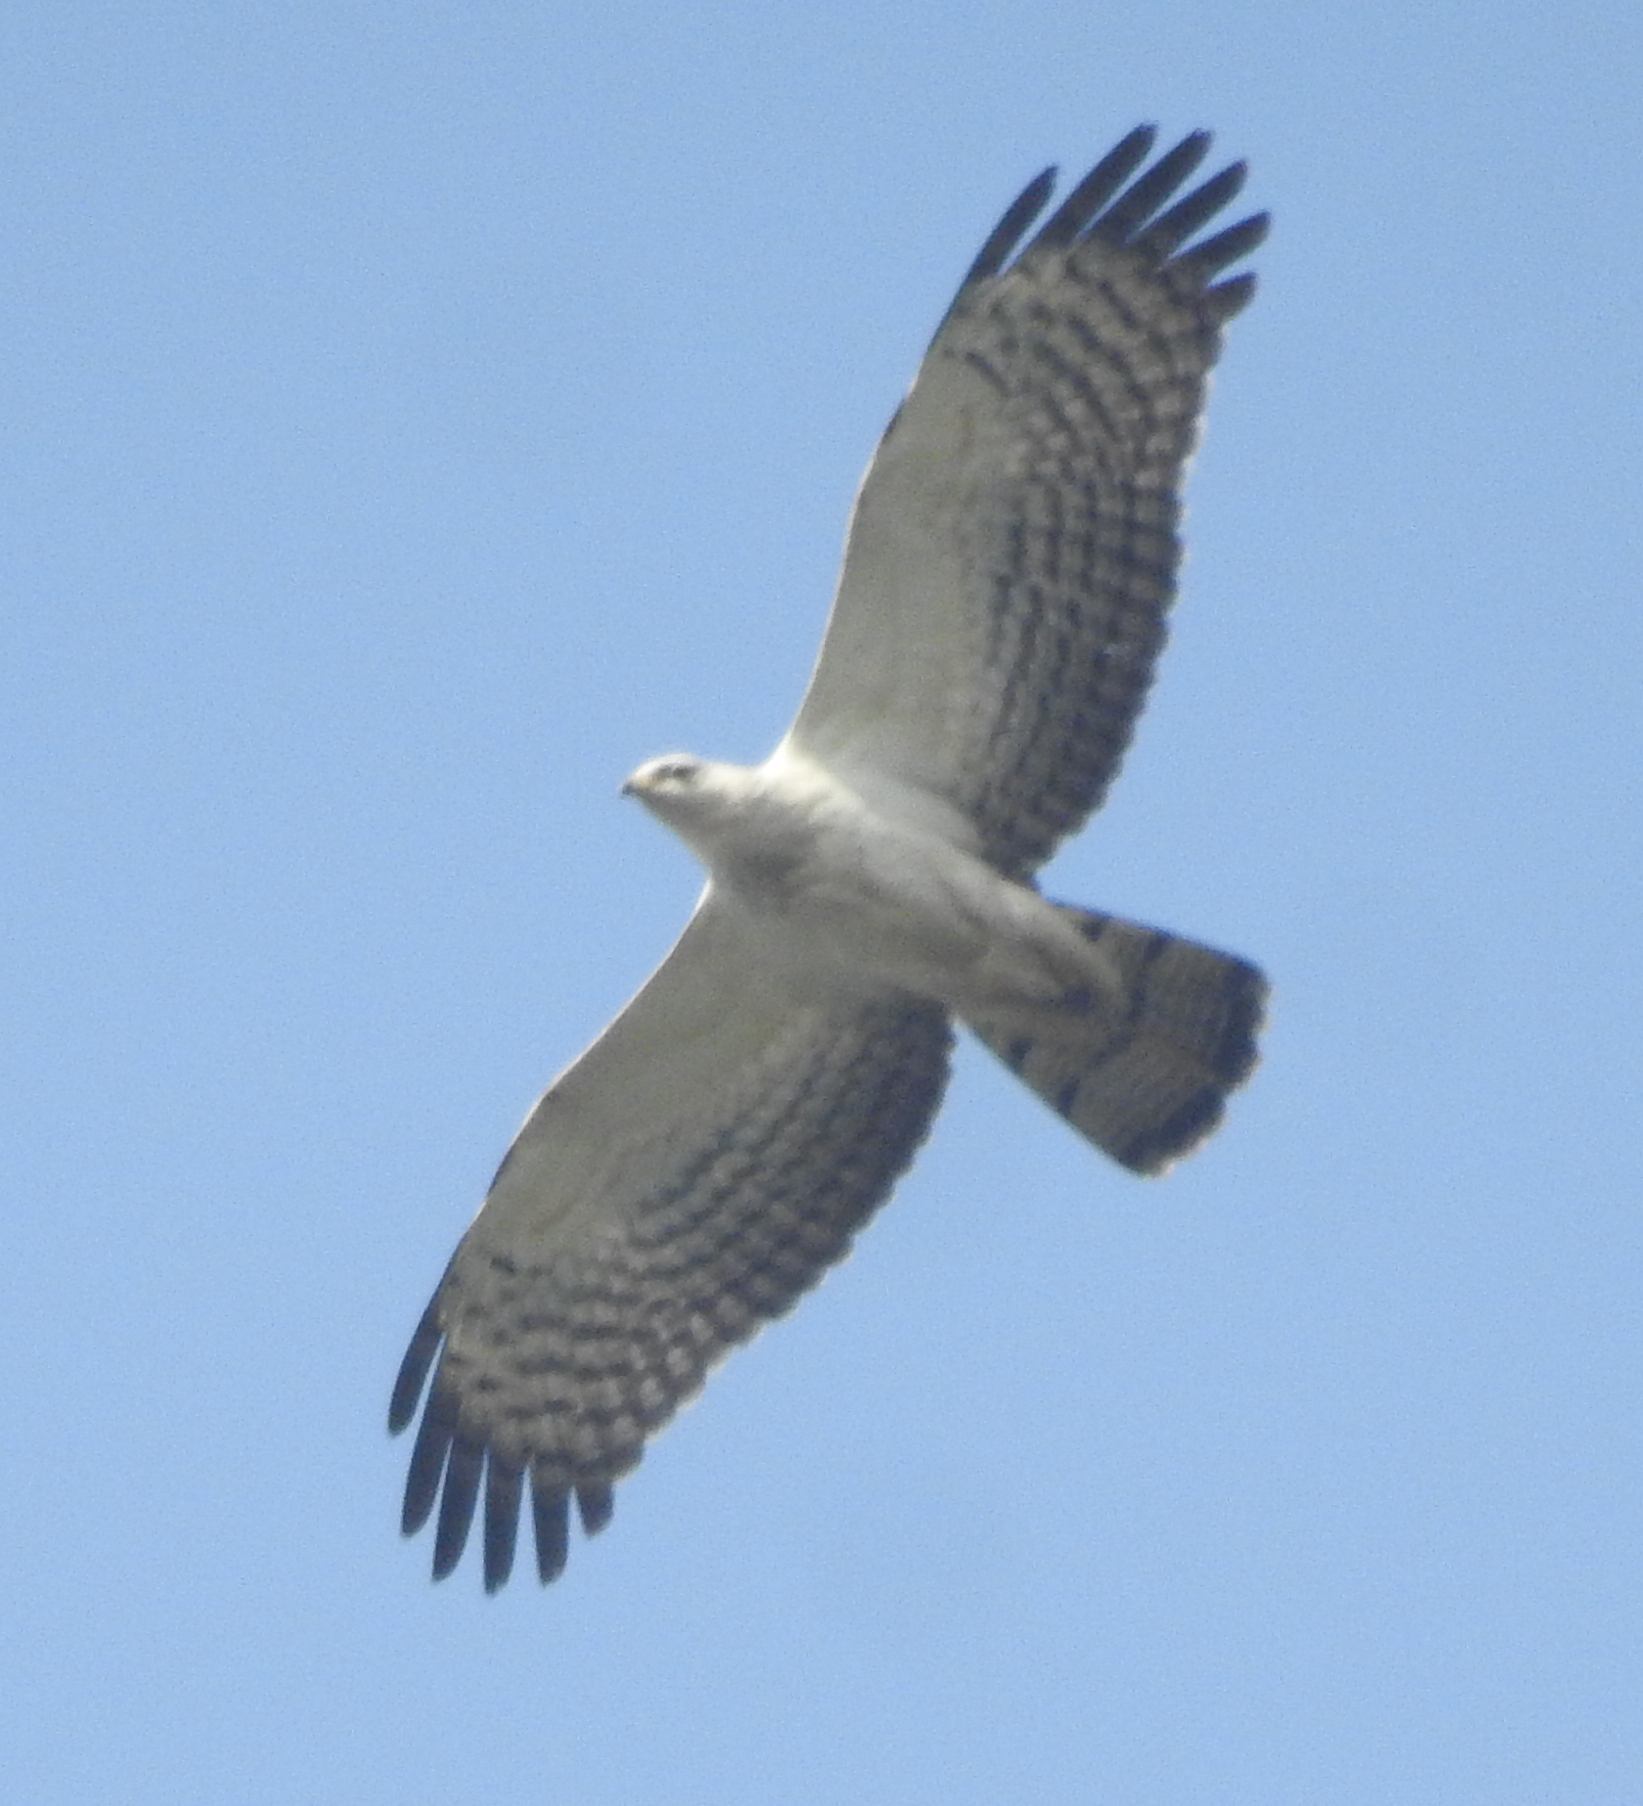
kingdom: Animalia
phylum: Chordata
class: Aves
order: Accipitriformes
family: Accipitridae
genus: Pernis
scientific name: Pernis ptilorhynchus
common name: Crested honey buzzard
